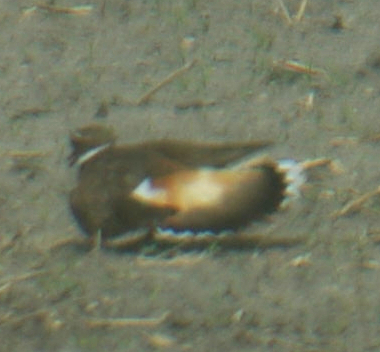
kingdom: Animalia
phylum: Chordata
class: Aves
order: Charadriiformes
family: Charadriidae
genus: Charadrius
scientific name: Charadrius vociferus
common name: Killdeer
